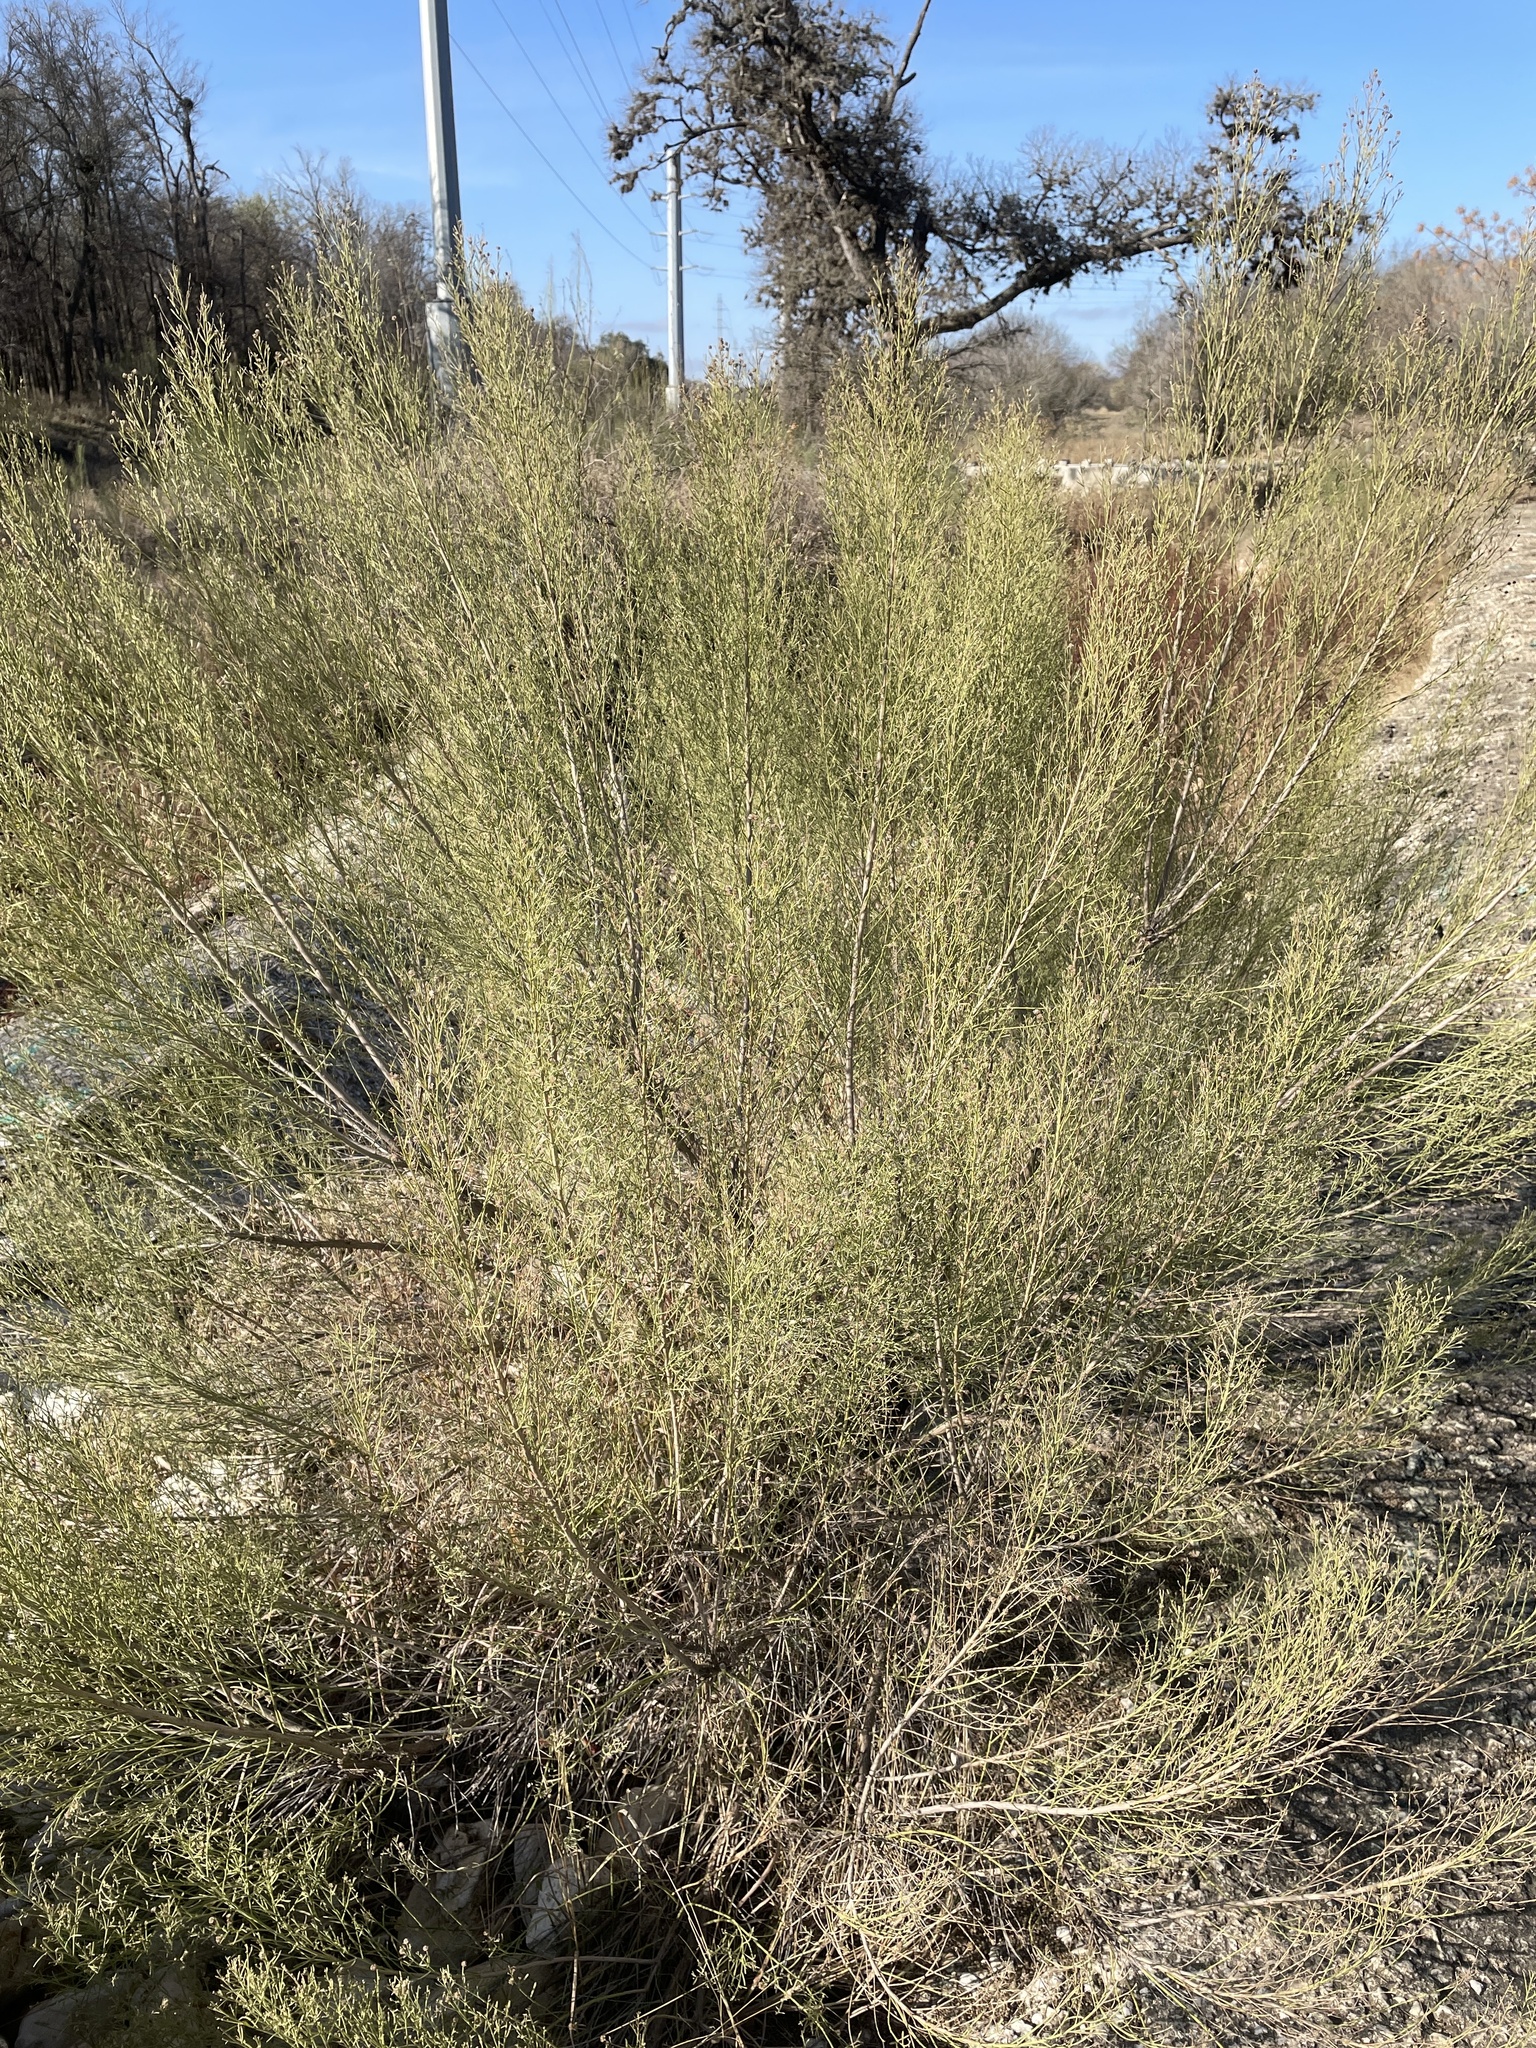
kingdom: Plantae
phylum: Tracheophyta
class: Magnoliopsida
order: Asterales
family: Asteraceae
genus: Baccharis
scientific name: Baccharis neglecta
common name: Roosevelt-weed
